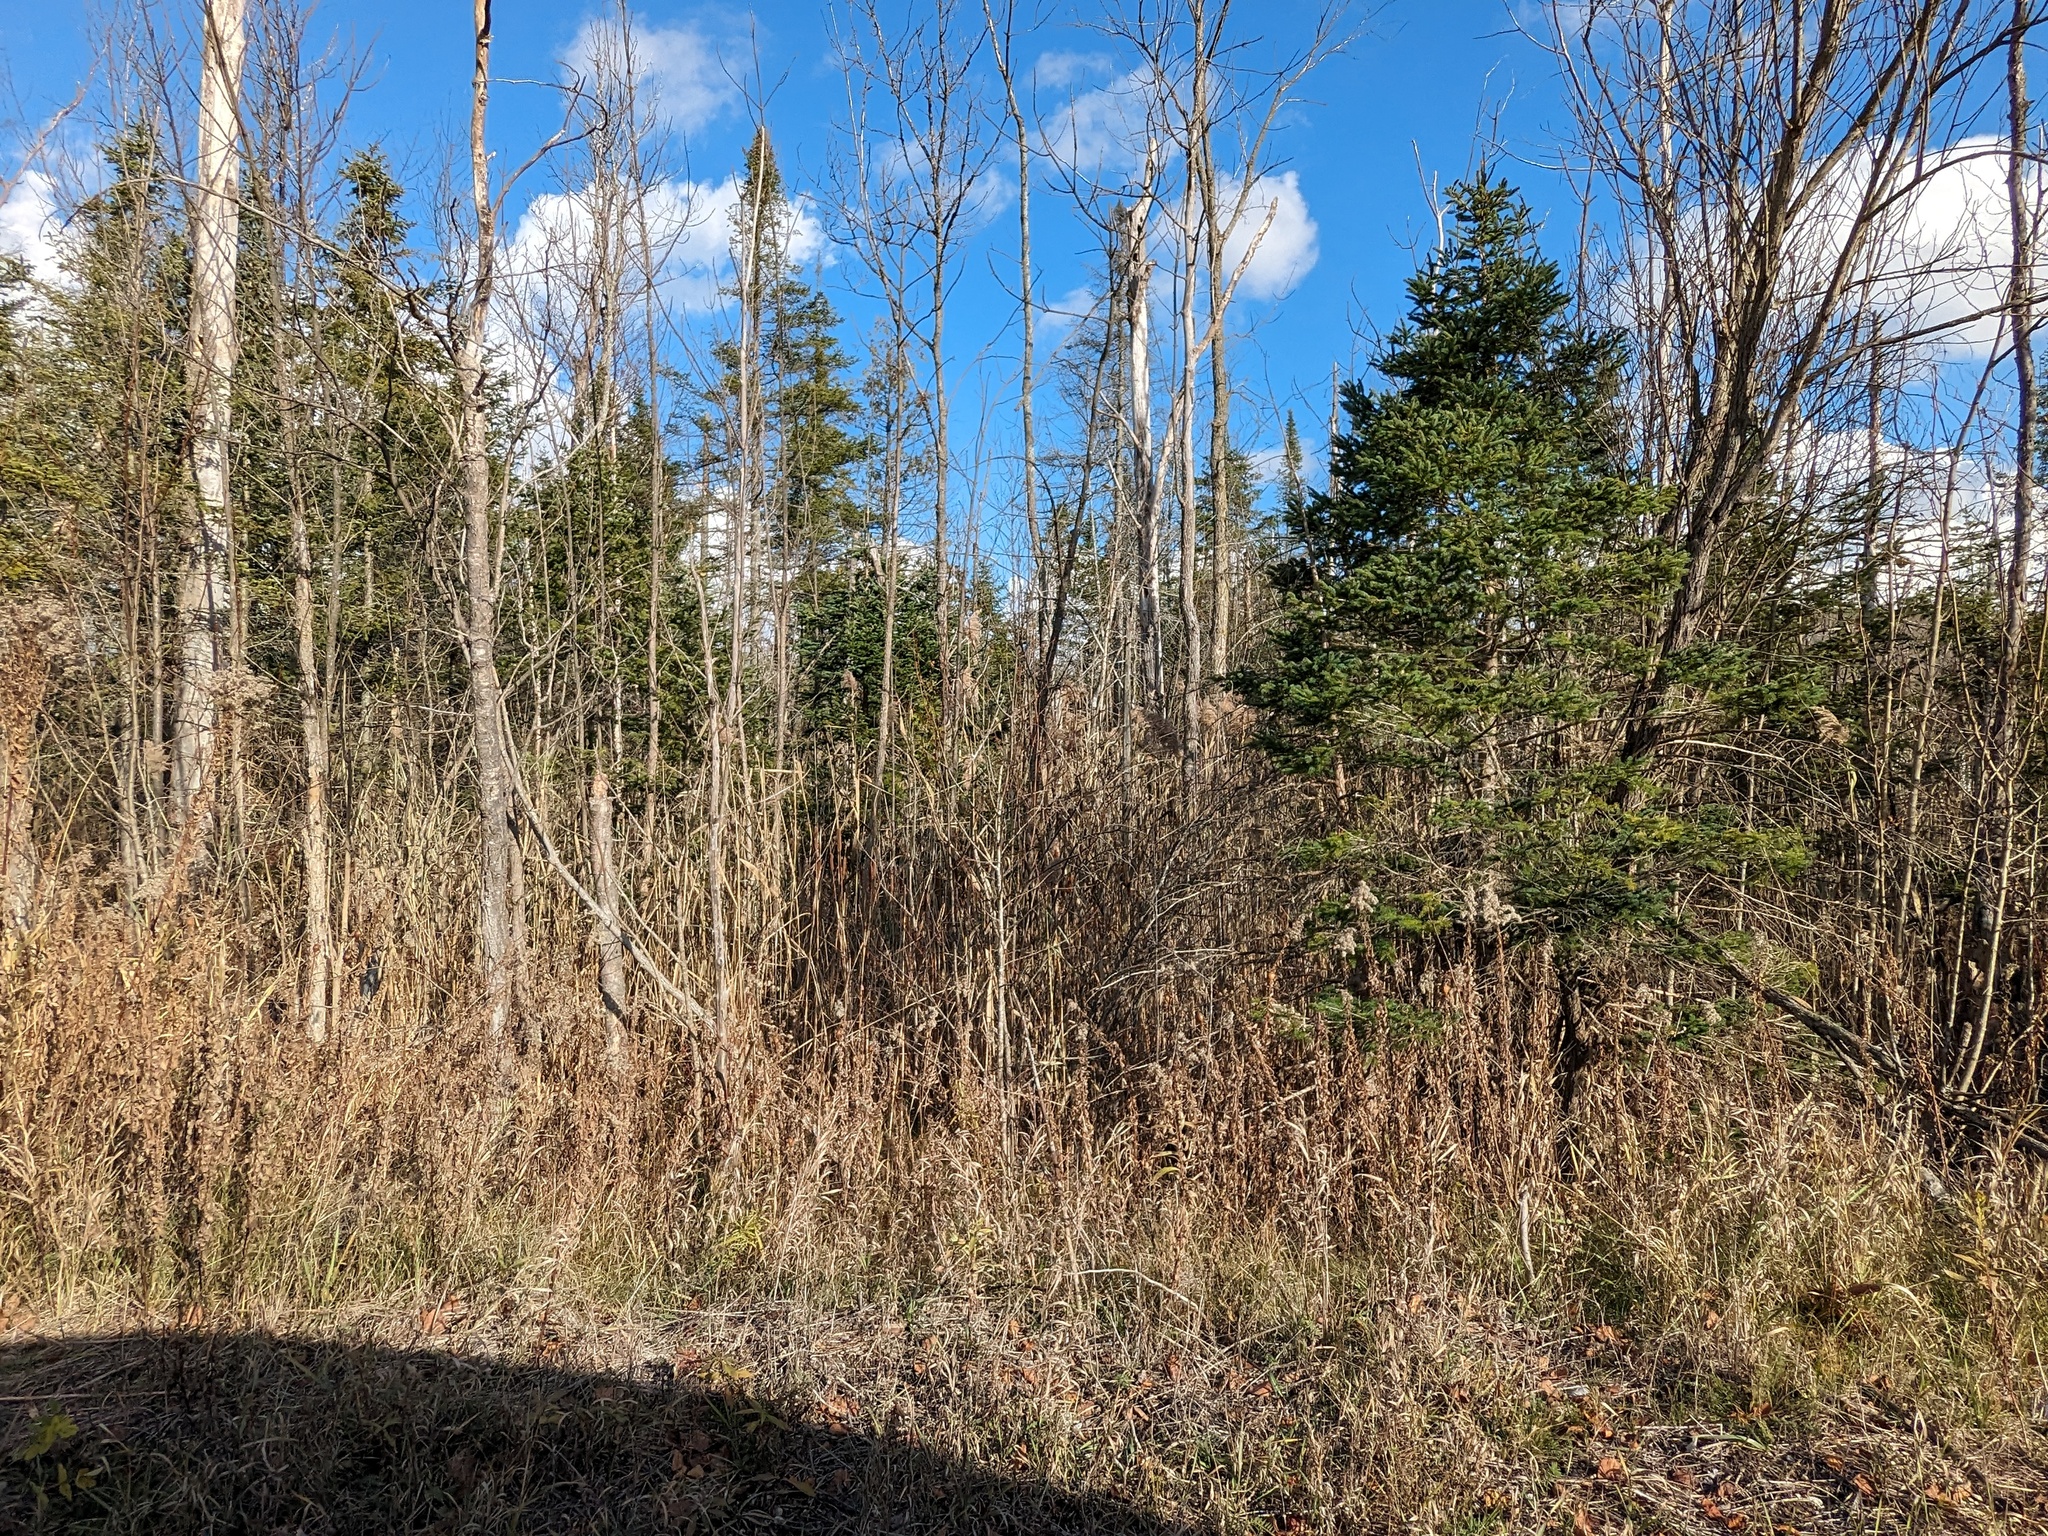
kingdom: Plantae
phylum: Tracheophyta
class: Liliopsida
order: Poales
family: Poaceae
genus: Phragmites
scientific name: Phragmites australis
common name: Common reed
